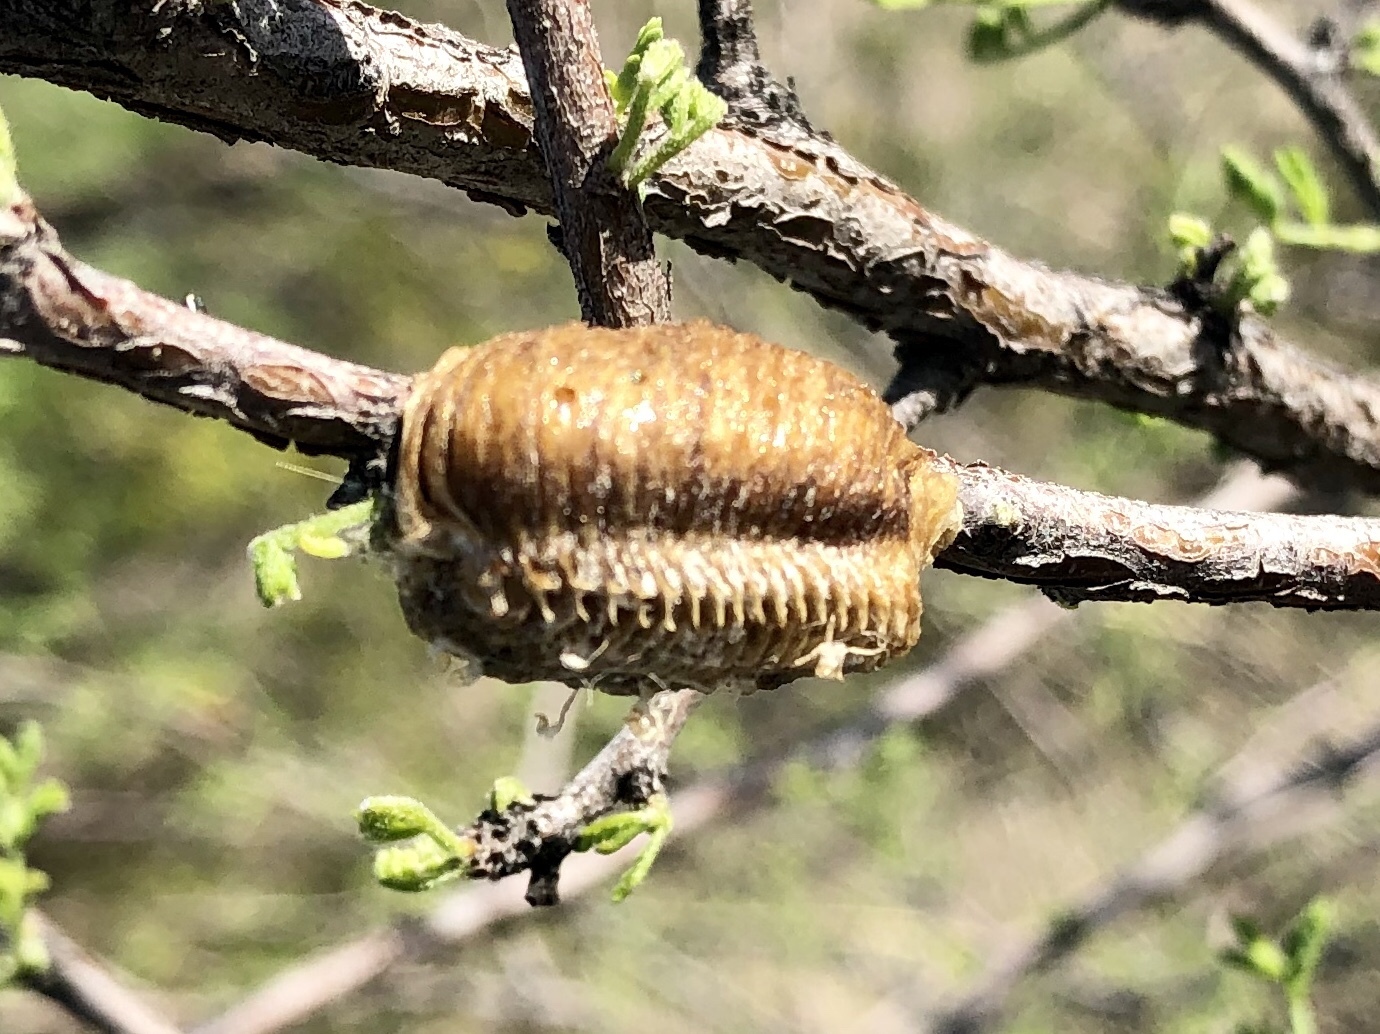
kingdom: Animalia
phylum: Arthropoda
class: Insecta
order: Mantodea
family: Mantidae
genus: Stagmomantis
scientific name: Stagmomantis limbata
